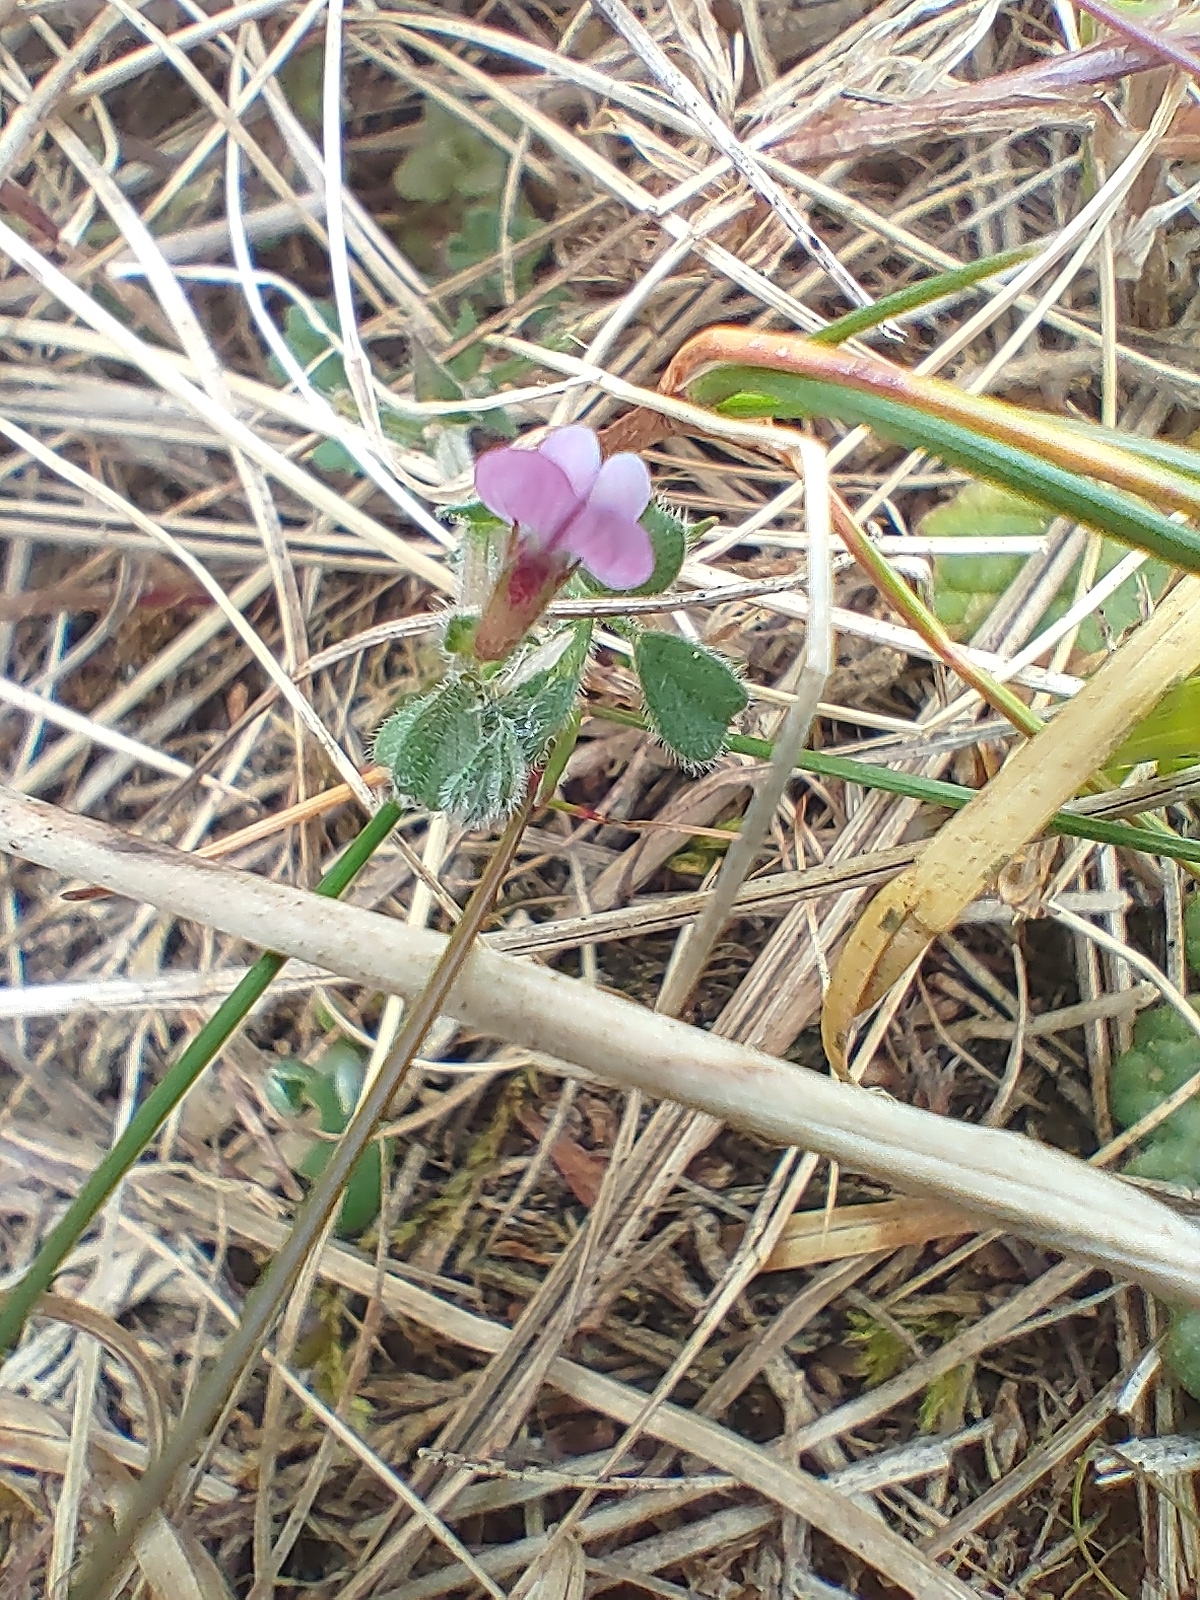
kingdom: Plantae
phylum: Tracheophyta
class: Magnoliopsida
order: Fabales
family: Fabaceae
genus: Vicia
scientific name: Vicia sativa
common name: Garden vetch
